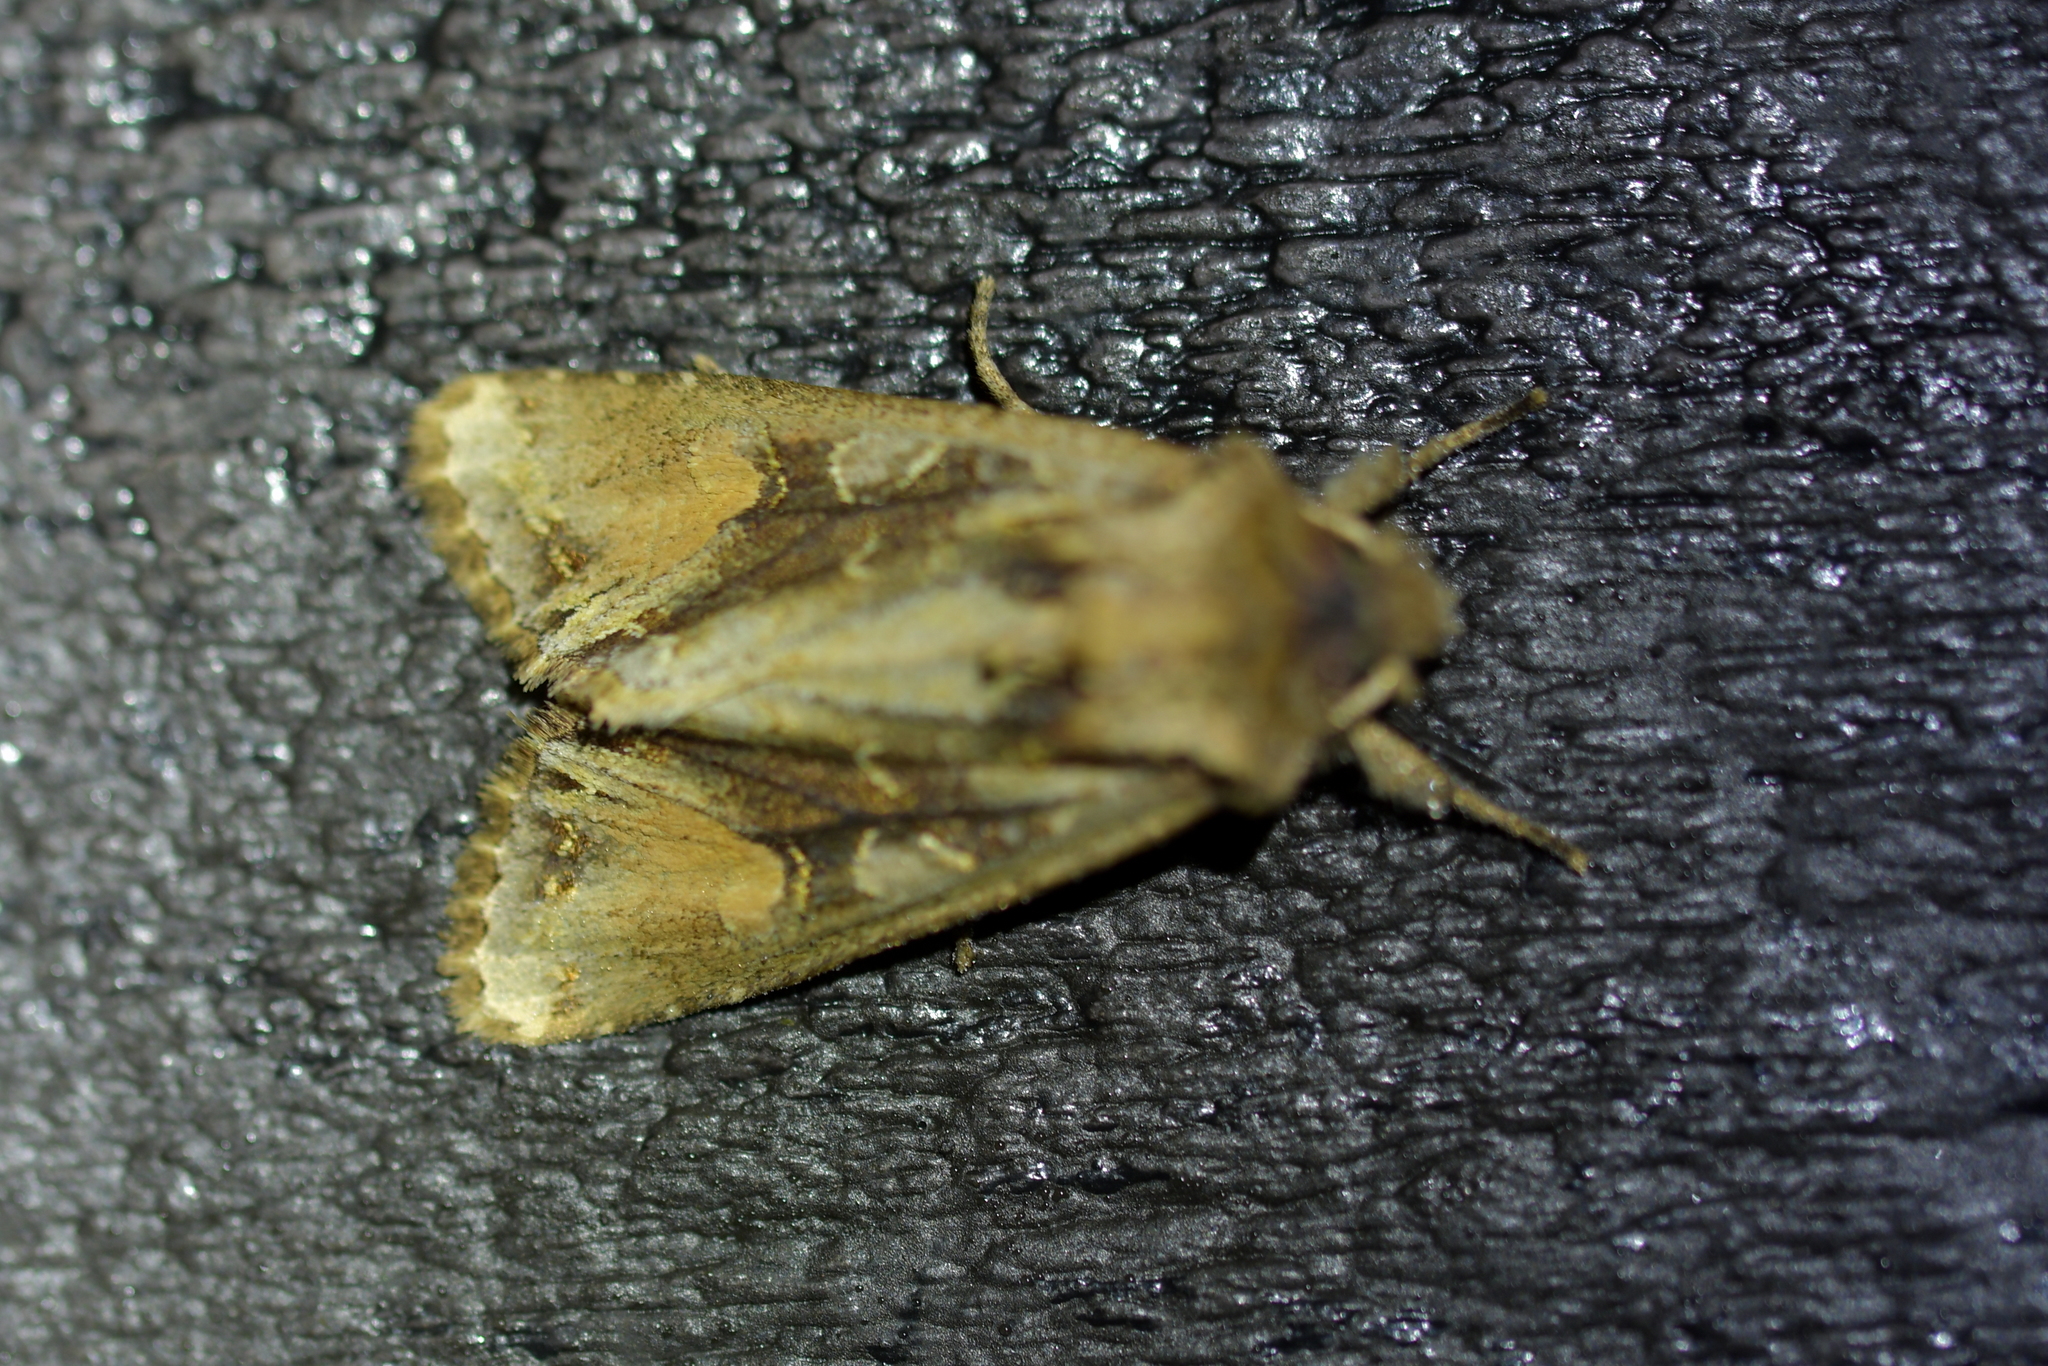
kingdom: Animalia
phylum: Arthropoda
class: Insecta
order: Lepidoptera
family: Noctuidae
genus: Ichneutica
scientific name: Ichneutica
